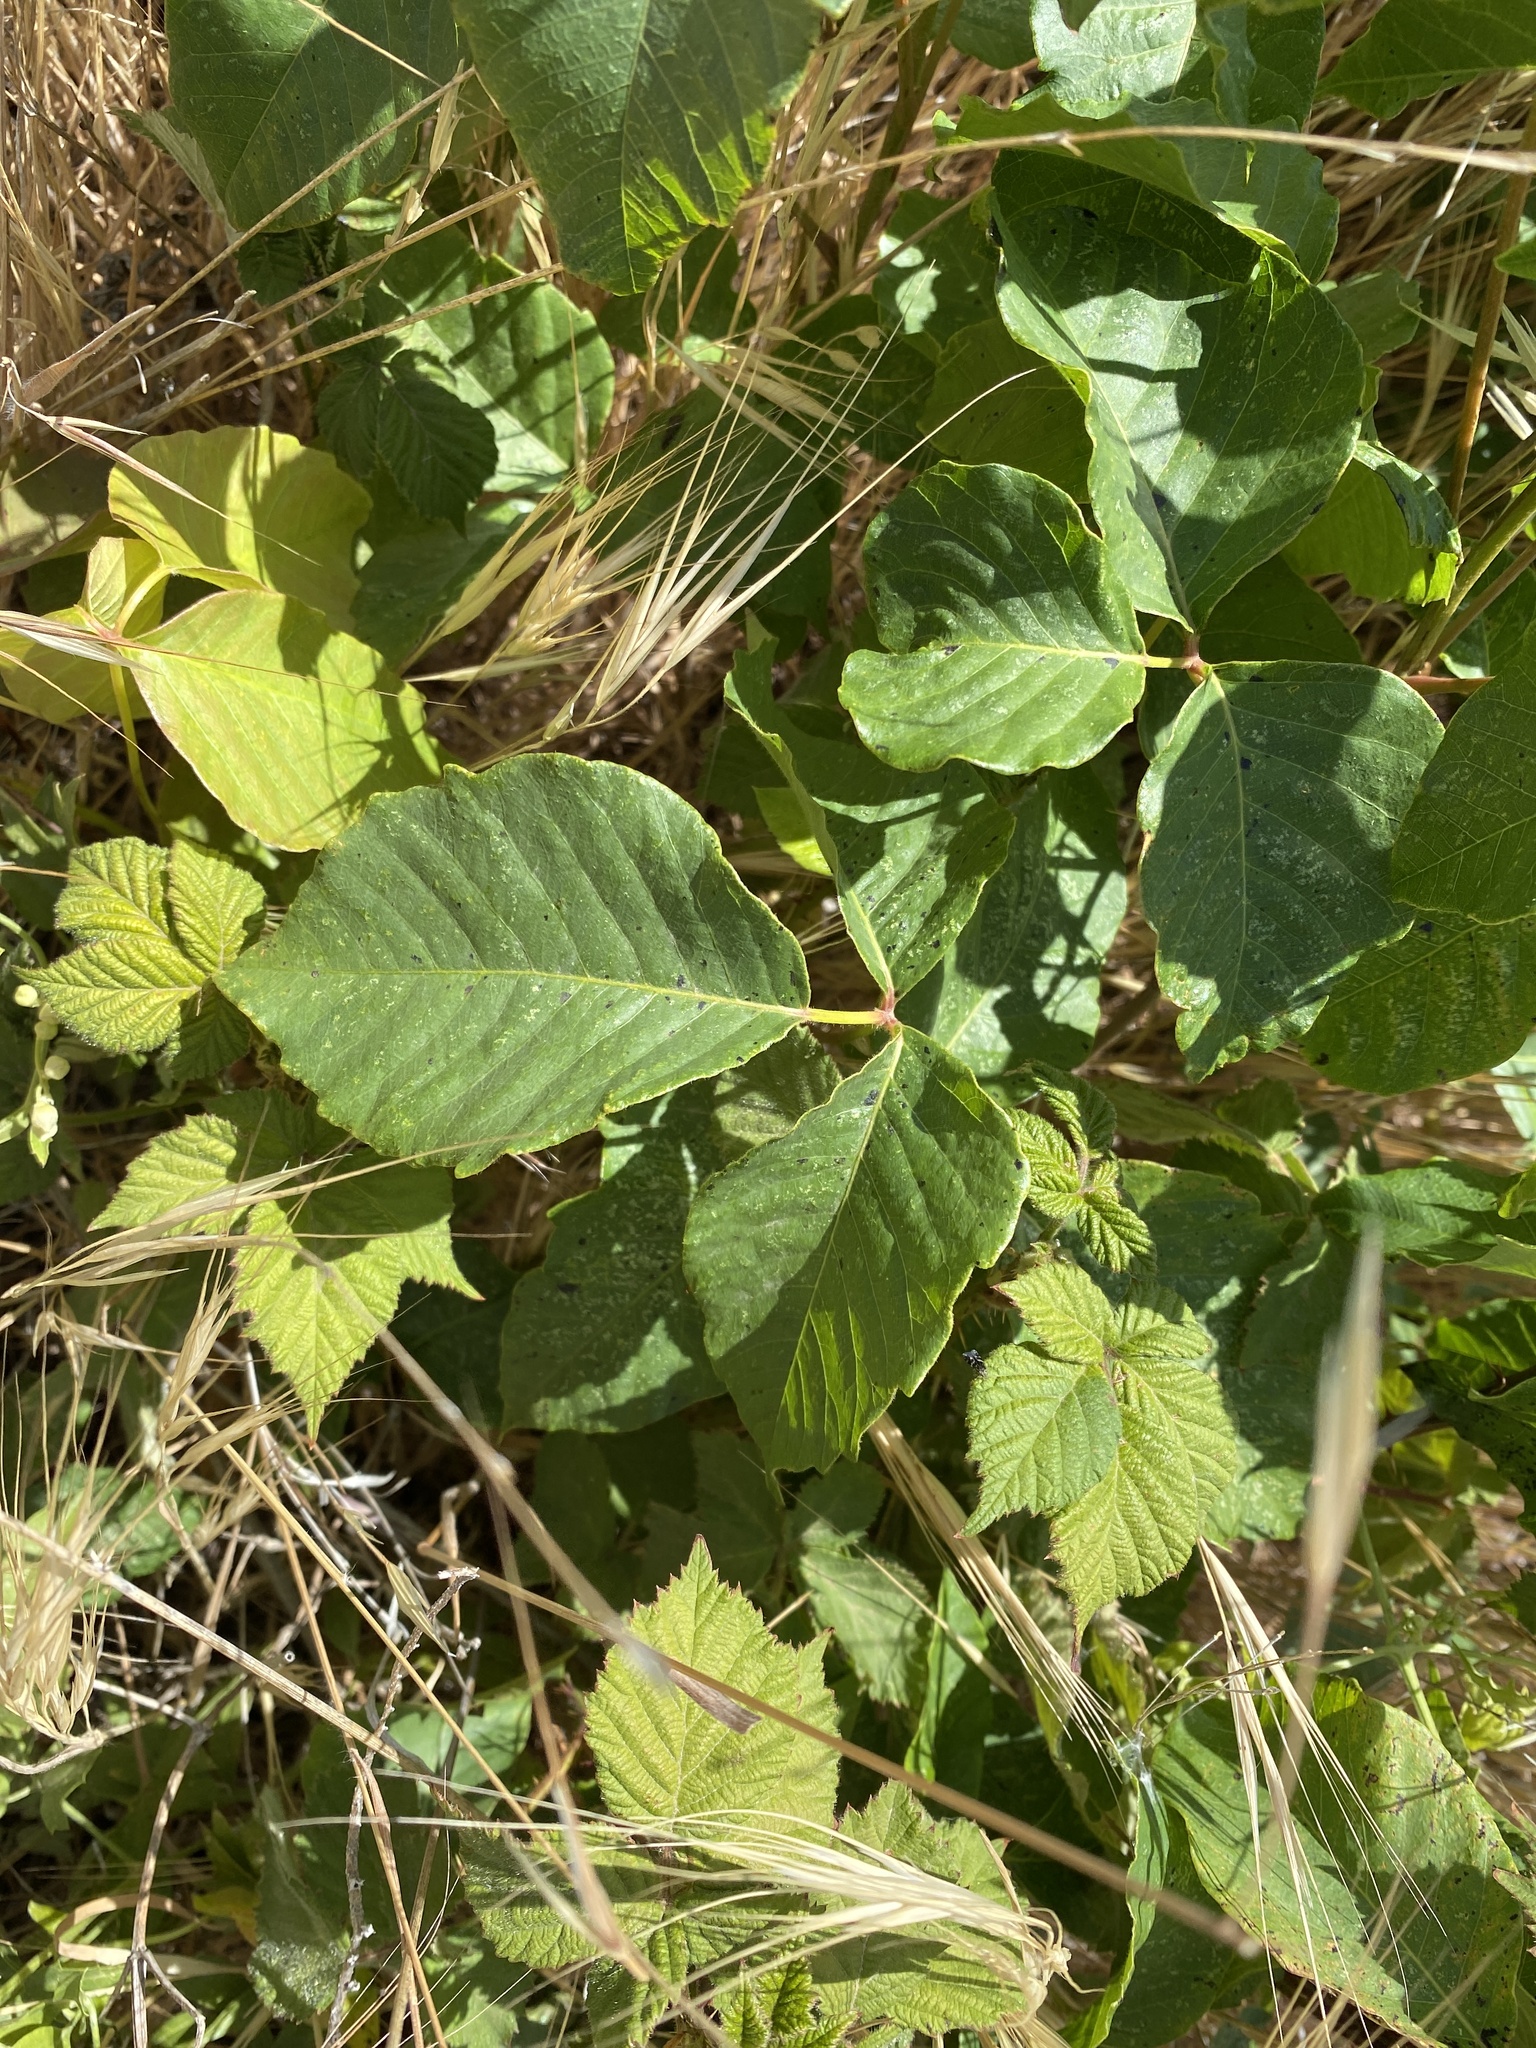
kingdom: Plantae
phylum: Tracheophyta
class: Magnoliopsida
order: Sapindales
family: Anacardiaceae
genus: Toxicodendron
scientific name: Toxicodendron rydbergii
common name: Rydberg's poison-ivy
